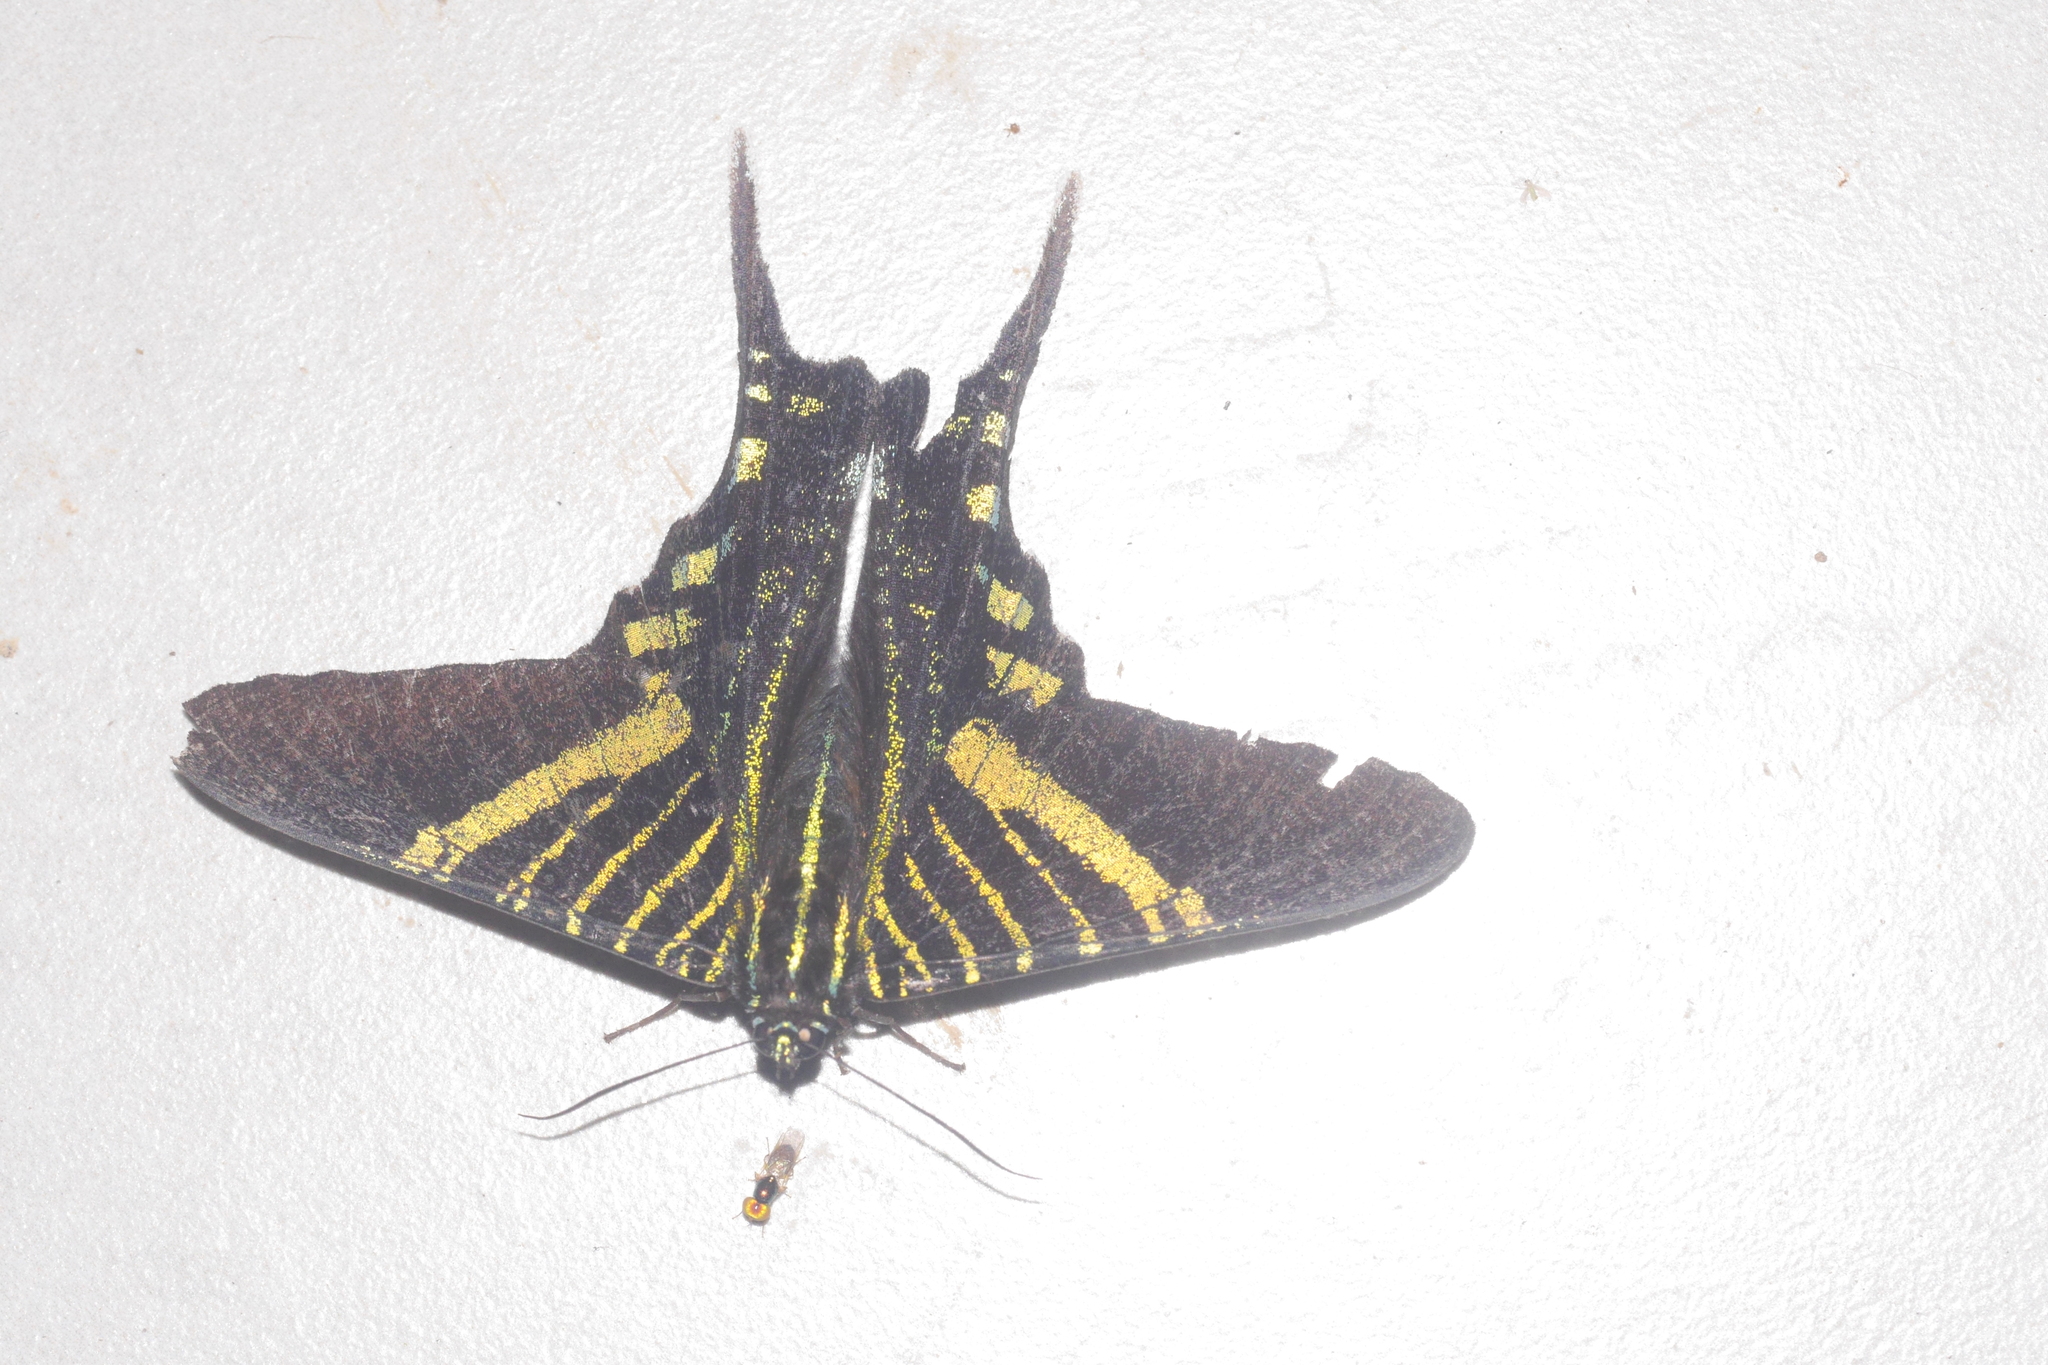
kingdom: Animalia
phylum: Arthropoda
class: Insecta
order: Lepidoptera
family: Uraniidae
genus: Urania
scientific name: Urania fulgens
